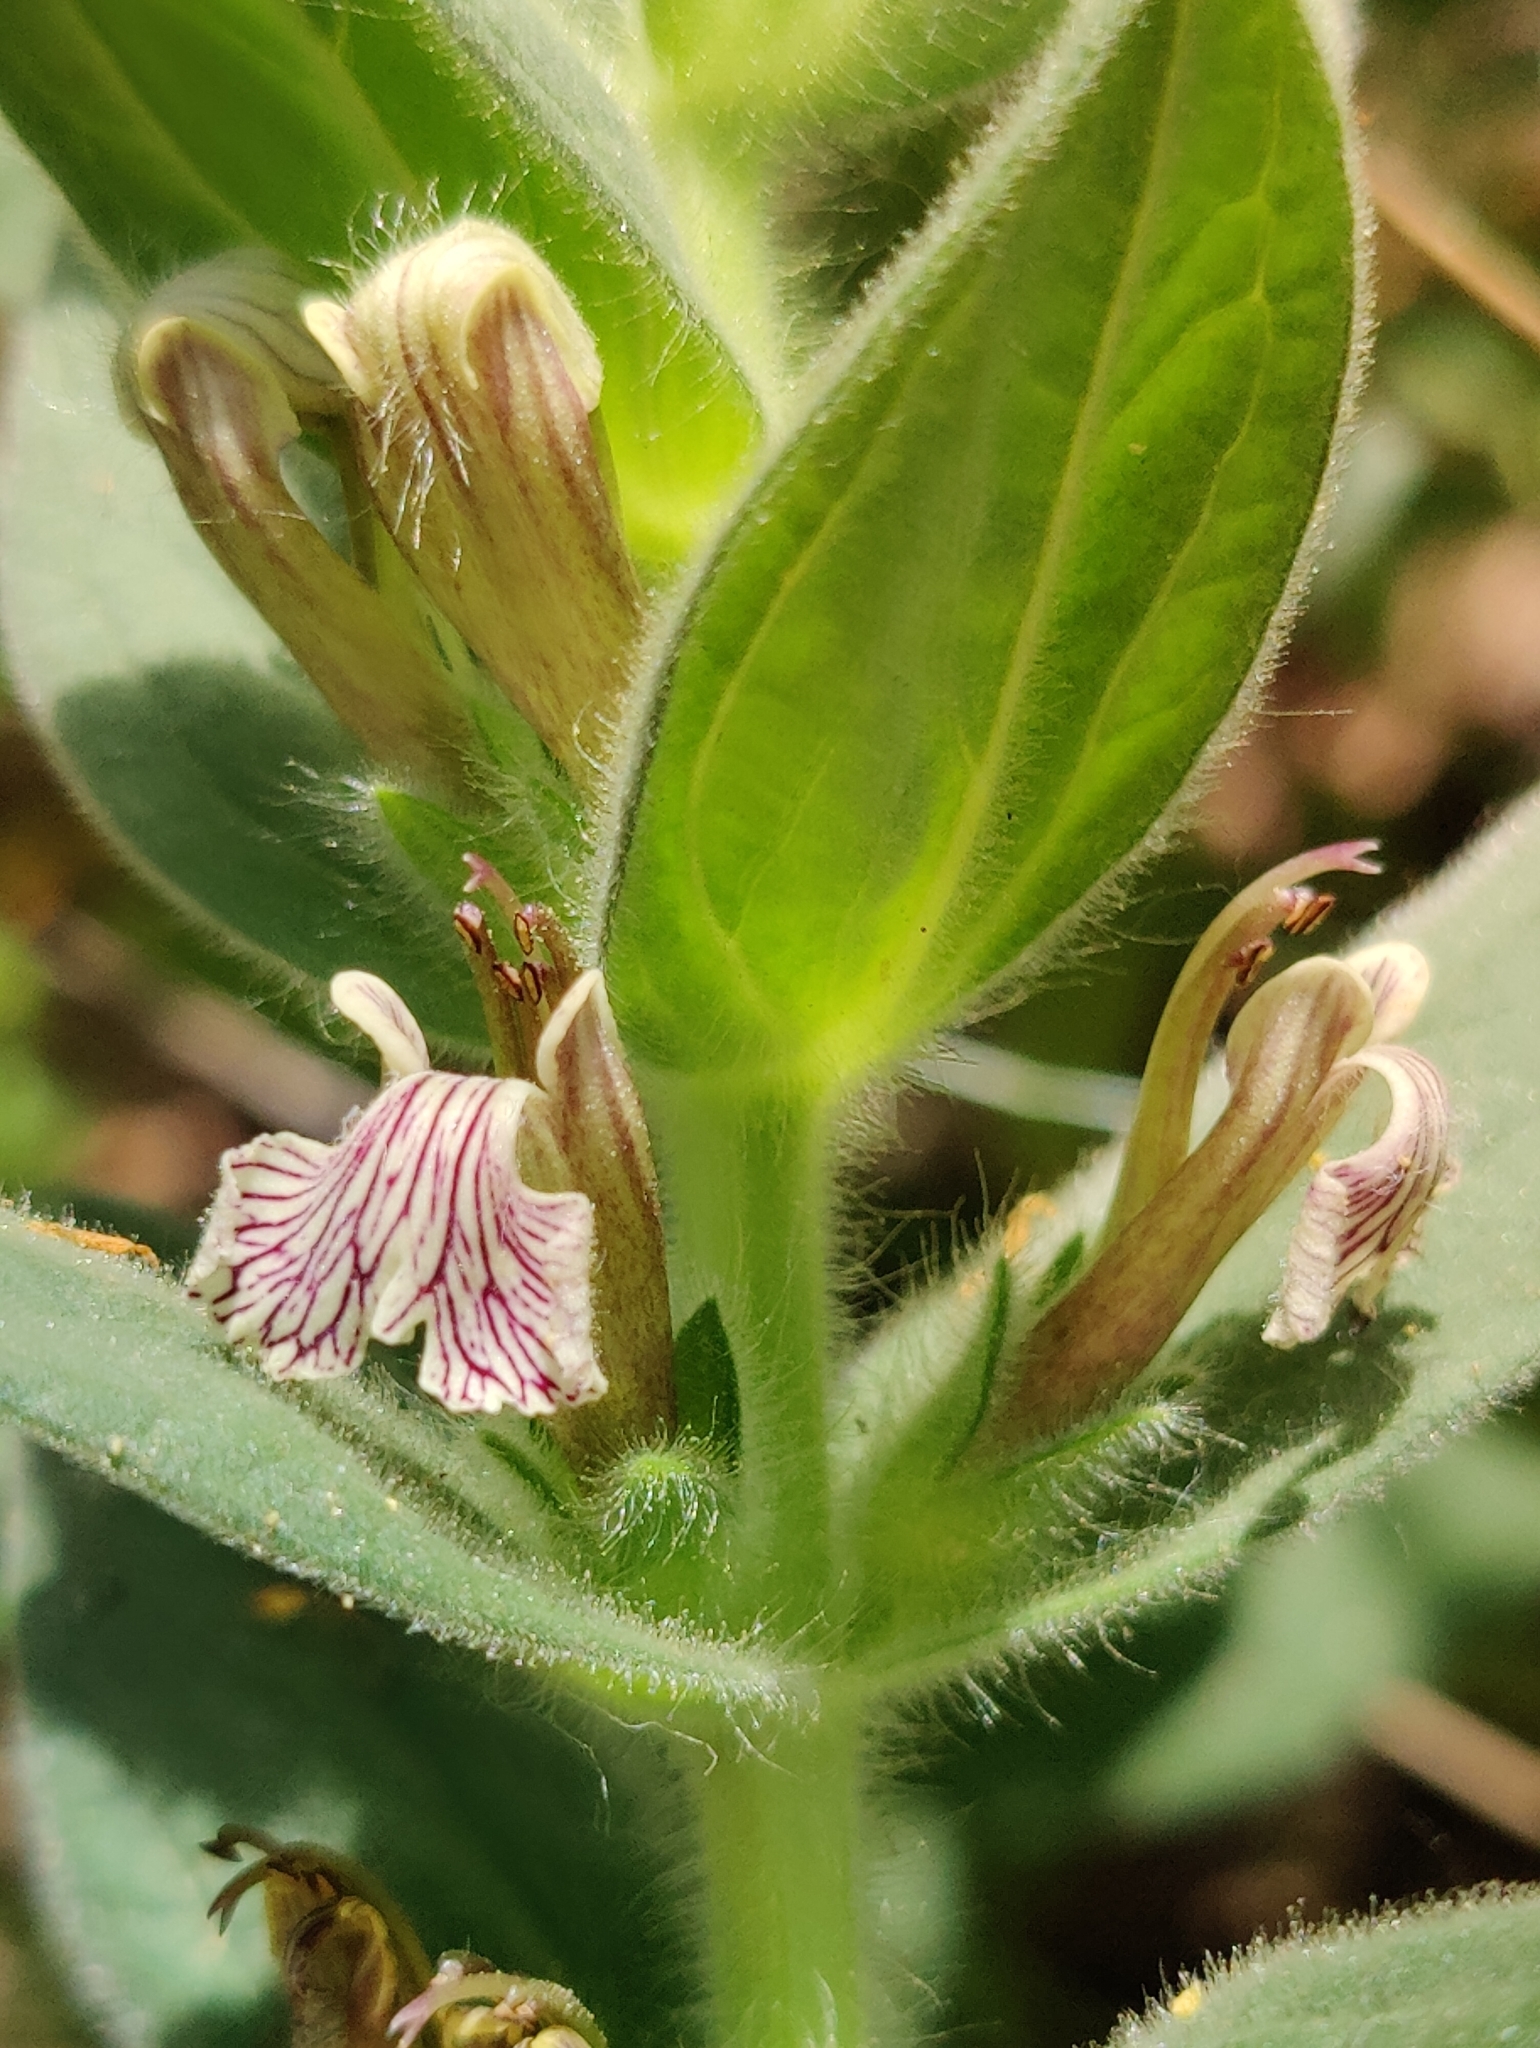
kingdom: Plantae
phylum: Tracheophyta
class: Magnoliopsida
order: Lamiales
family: Lamiaceae
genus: Ajuga
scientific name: Ajuga laxmannii
